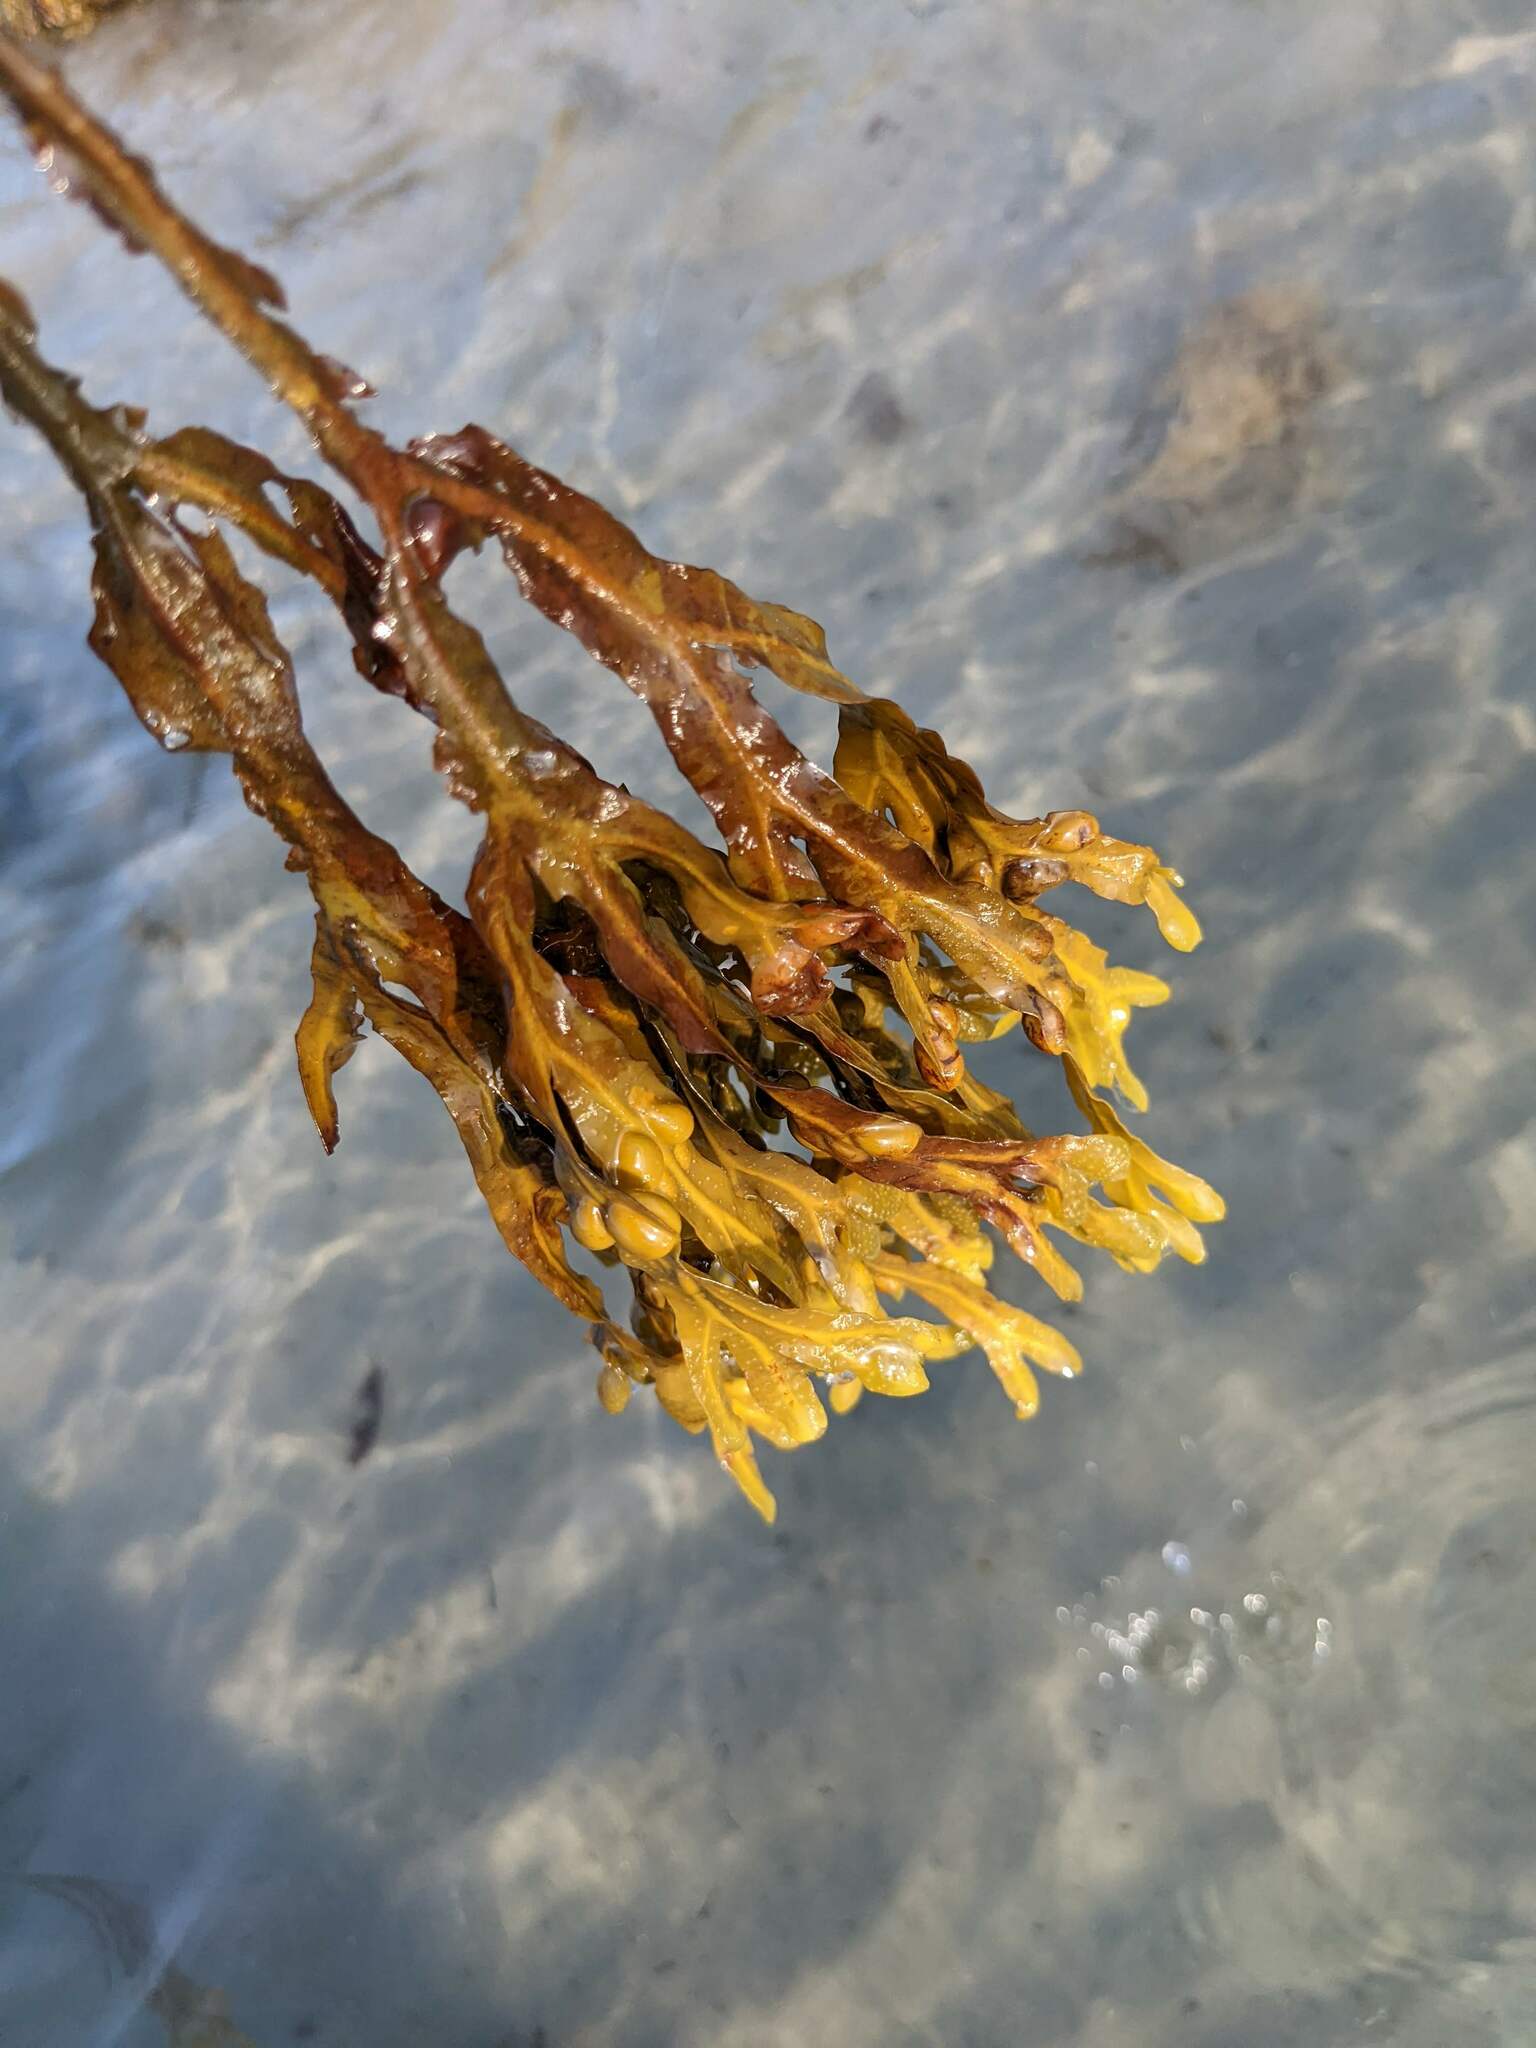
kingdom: Chromista
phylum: Ochrophyta
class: Phaeophyceae
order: Fucales
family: Fucaceae
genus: Fucus
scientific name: Fucus vesiculosus
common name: Bladder wrack
